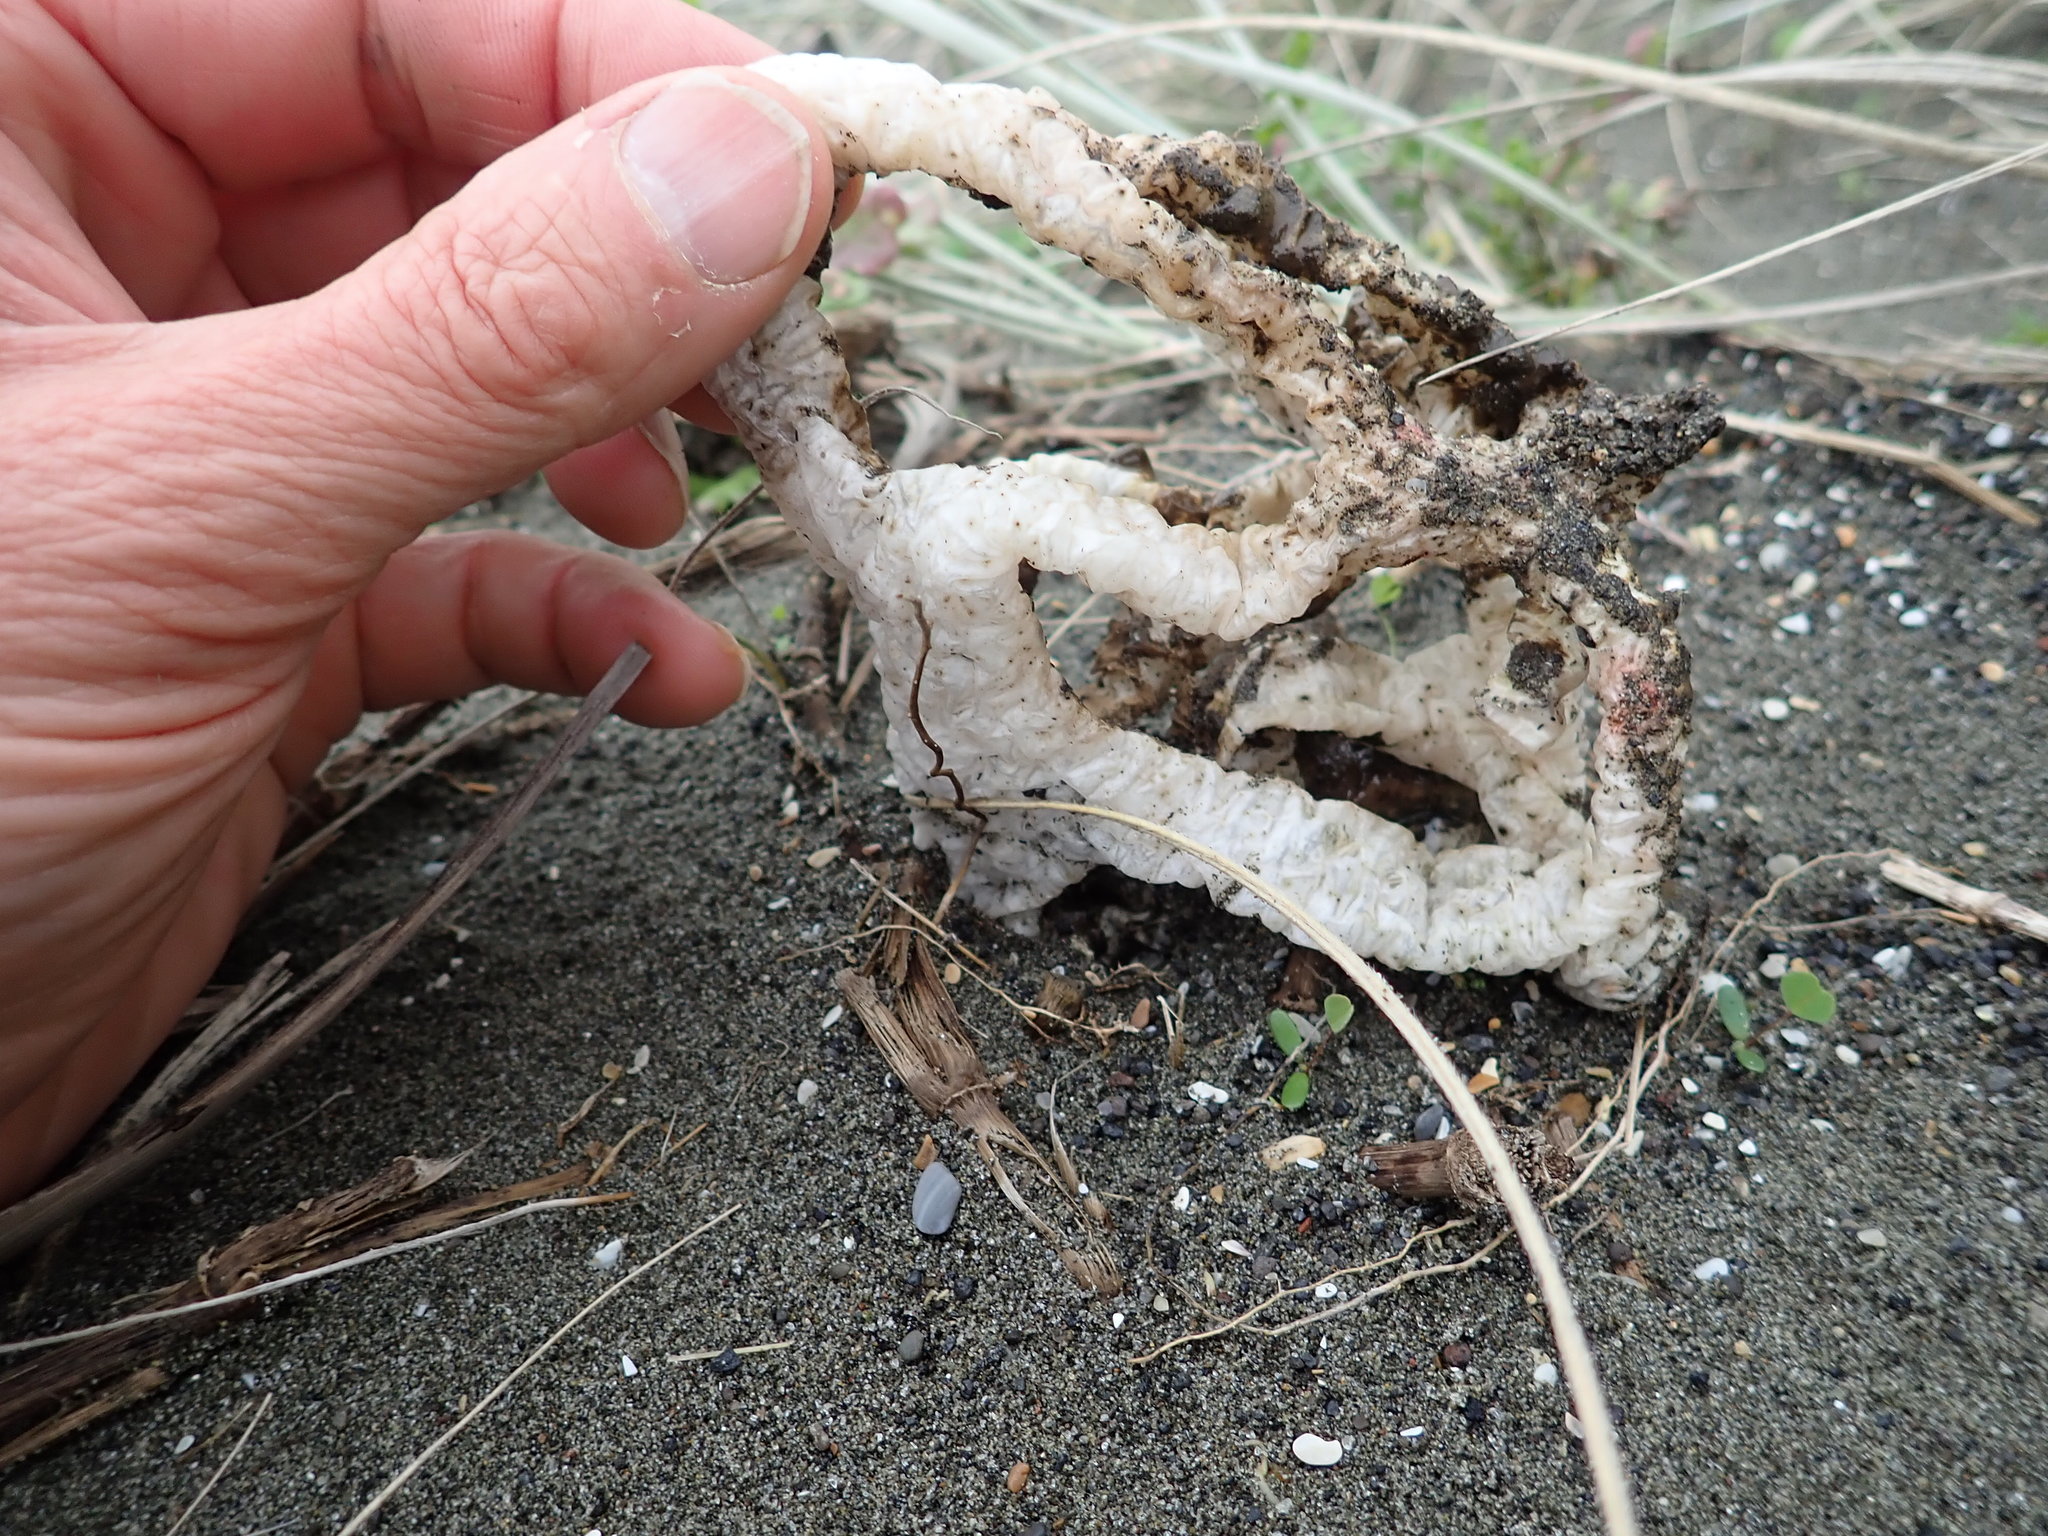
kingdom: Fungi
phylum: Basidiomycota
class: Agaricomycetes
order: Phallales
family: Phallaceae
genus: Ileodictyon
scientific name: Ileodictyon cibarium
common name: Basket fungus
